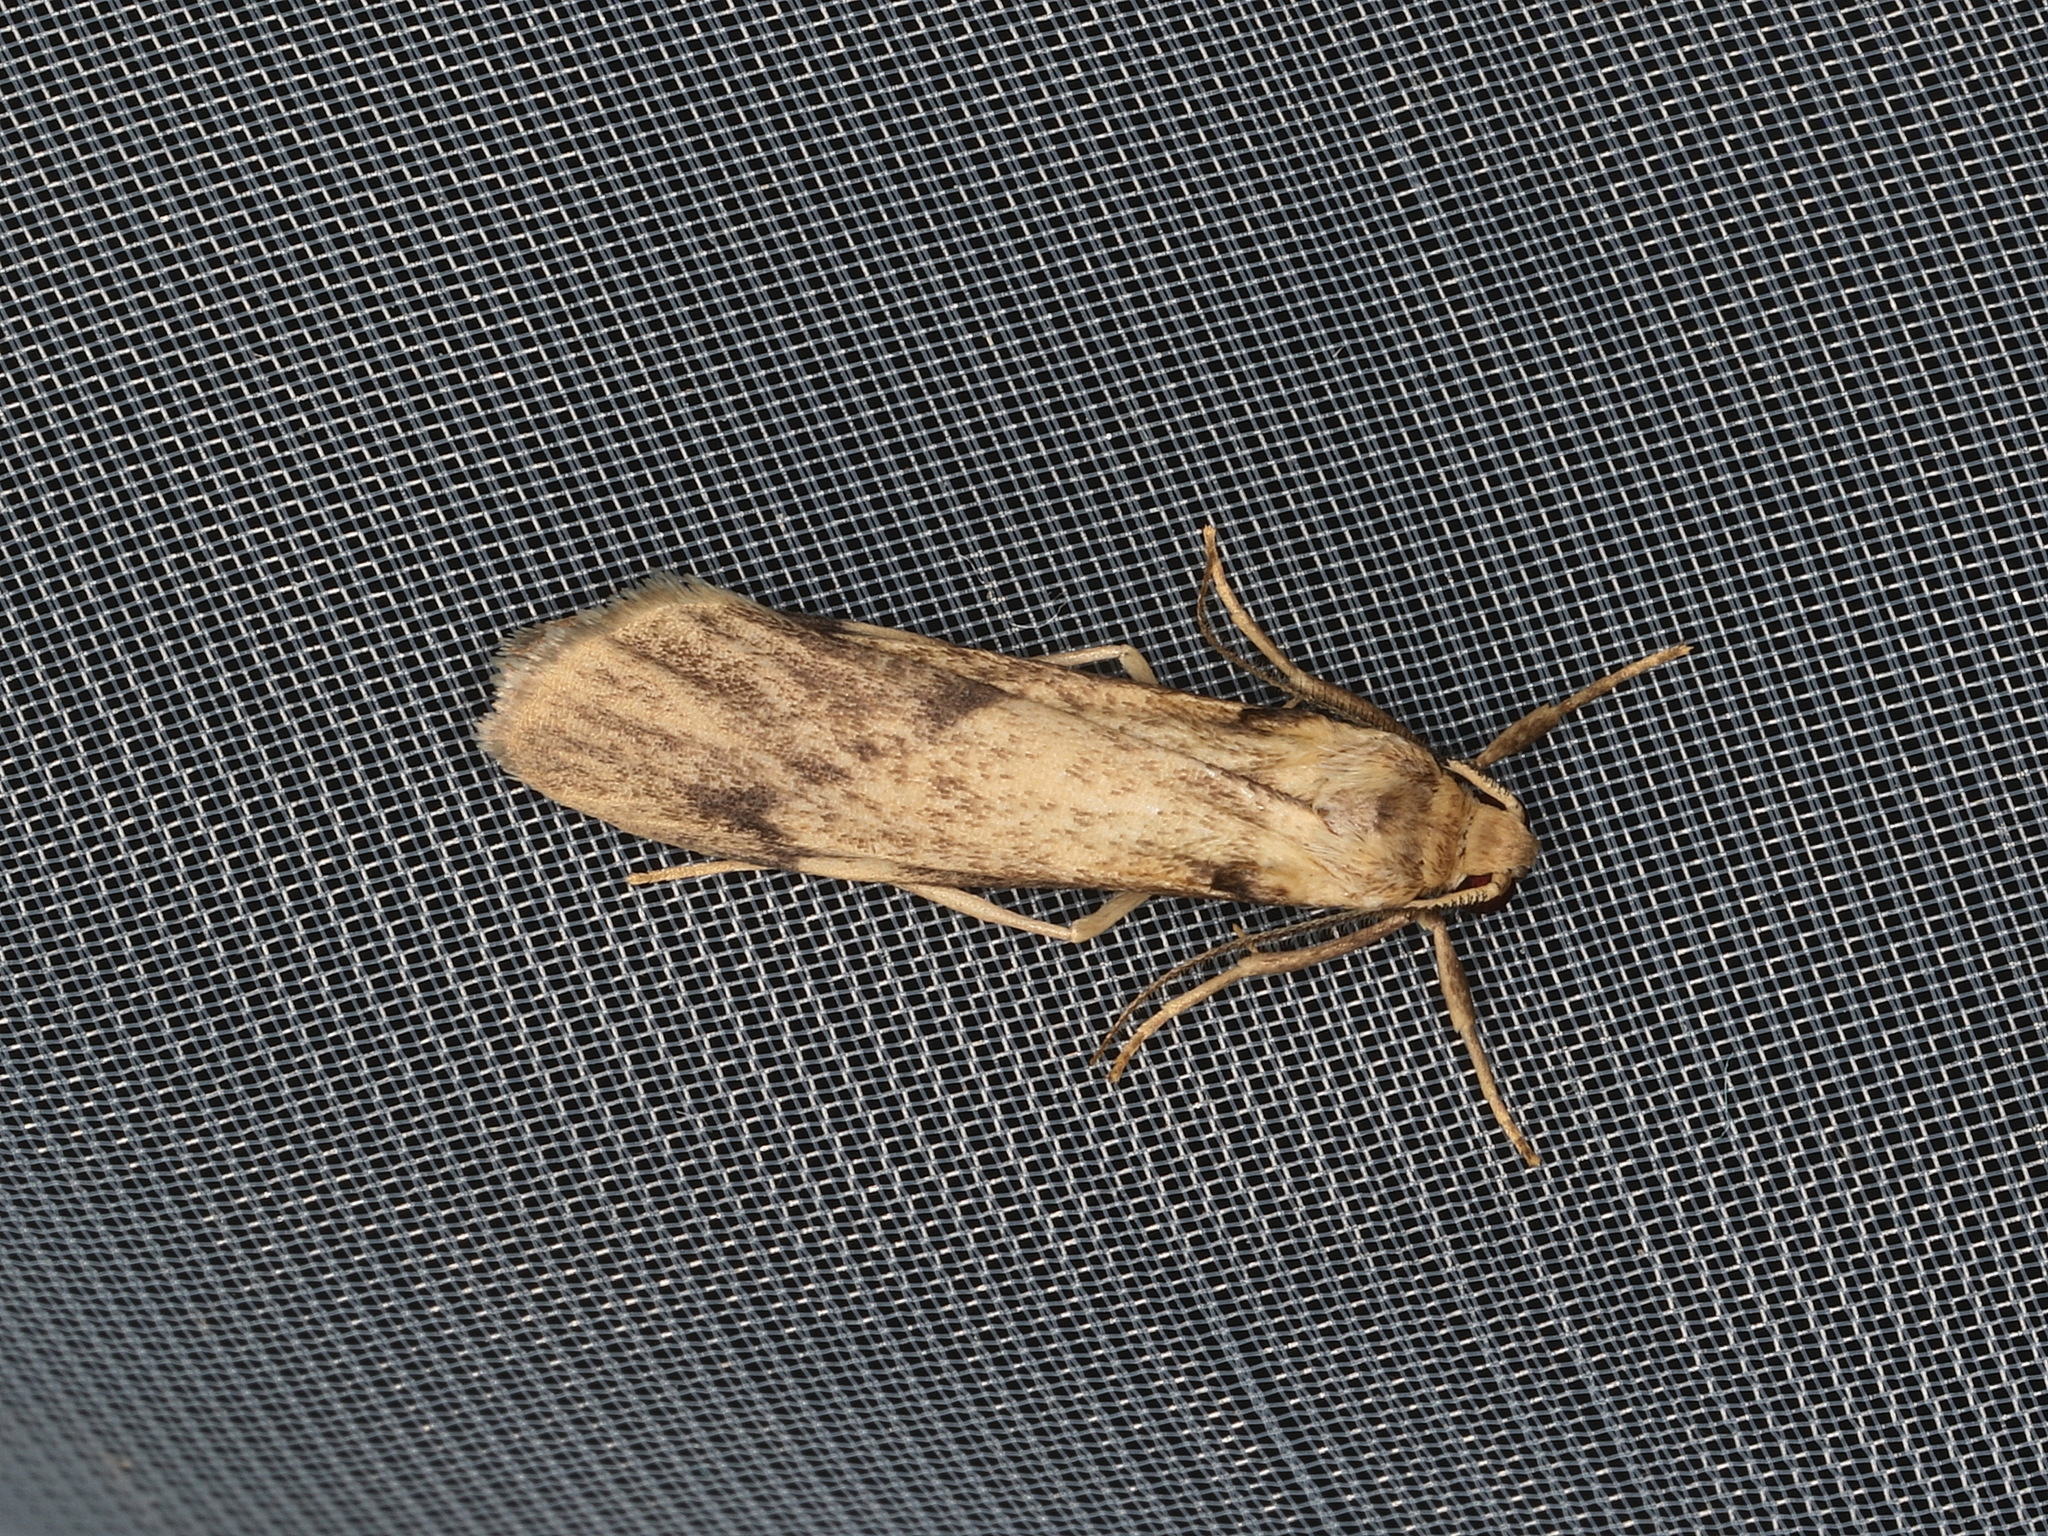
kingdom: Animalia
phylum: Arthropoda
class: Insecta
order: Lepidoptera
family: Erebidae
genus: Graphosia
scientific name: Graphosia stenopepla
